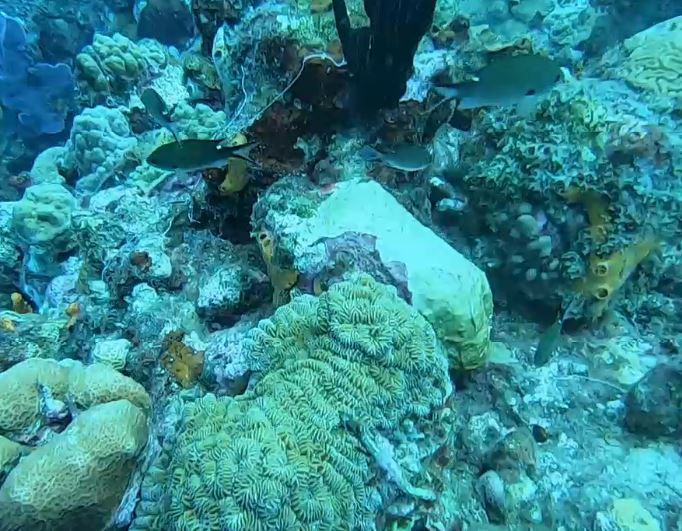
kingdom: Animalia
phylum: Chordata
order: Perciformes
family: Pomacentridae
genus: Chromis
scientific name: Chromis multilineata
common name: Brown chromis
